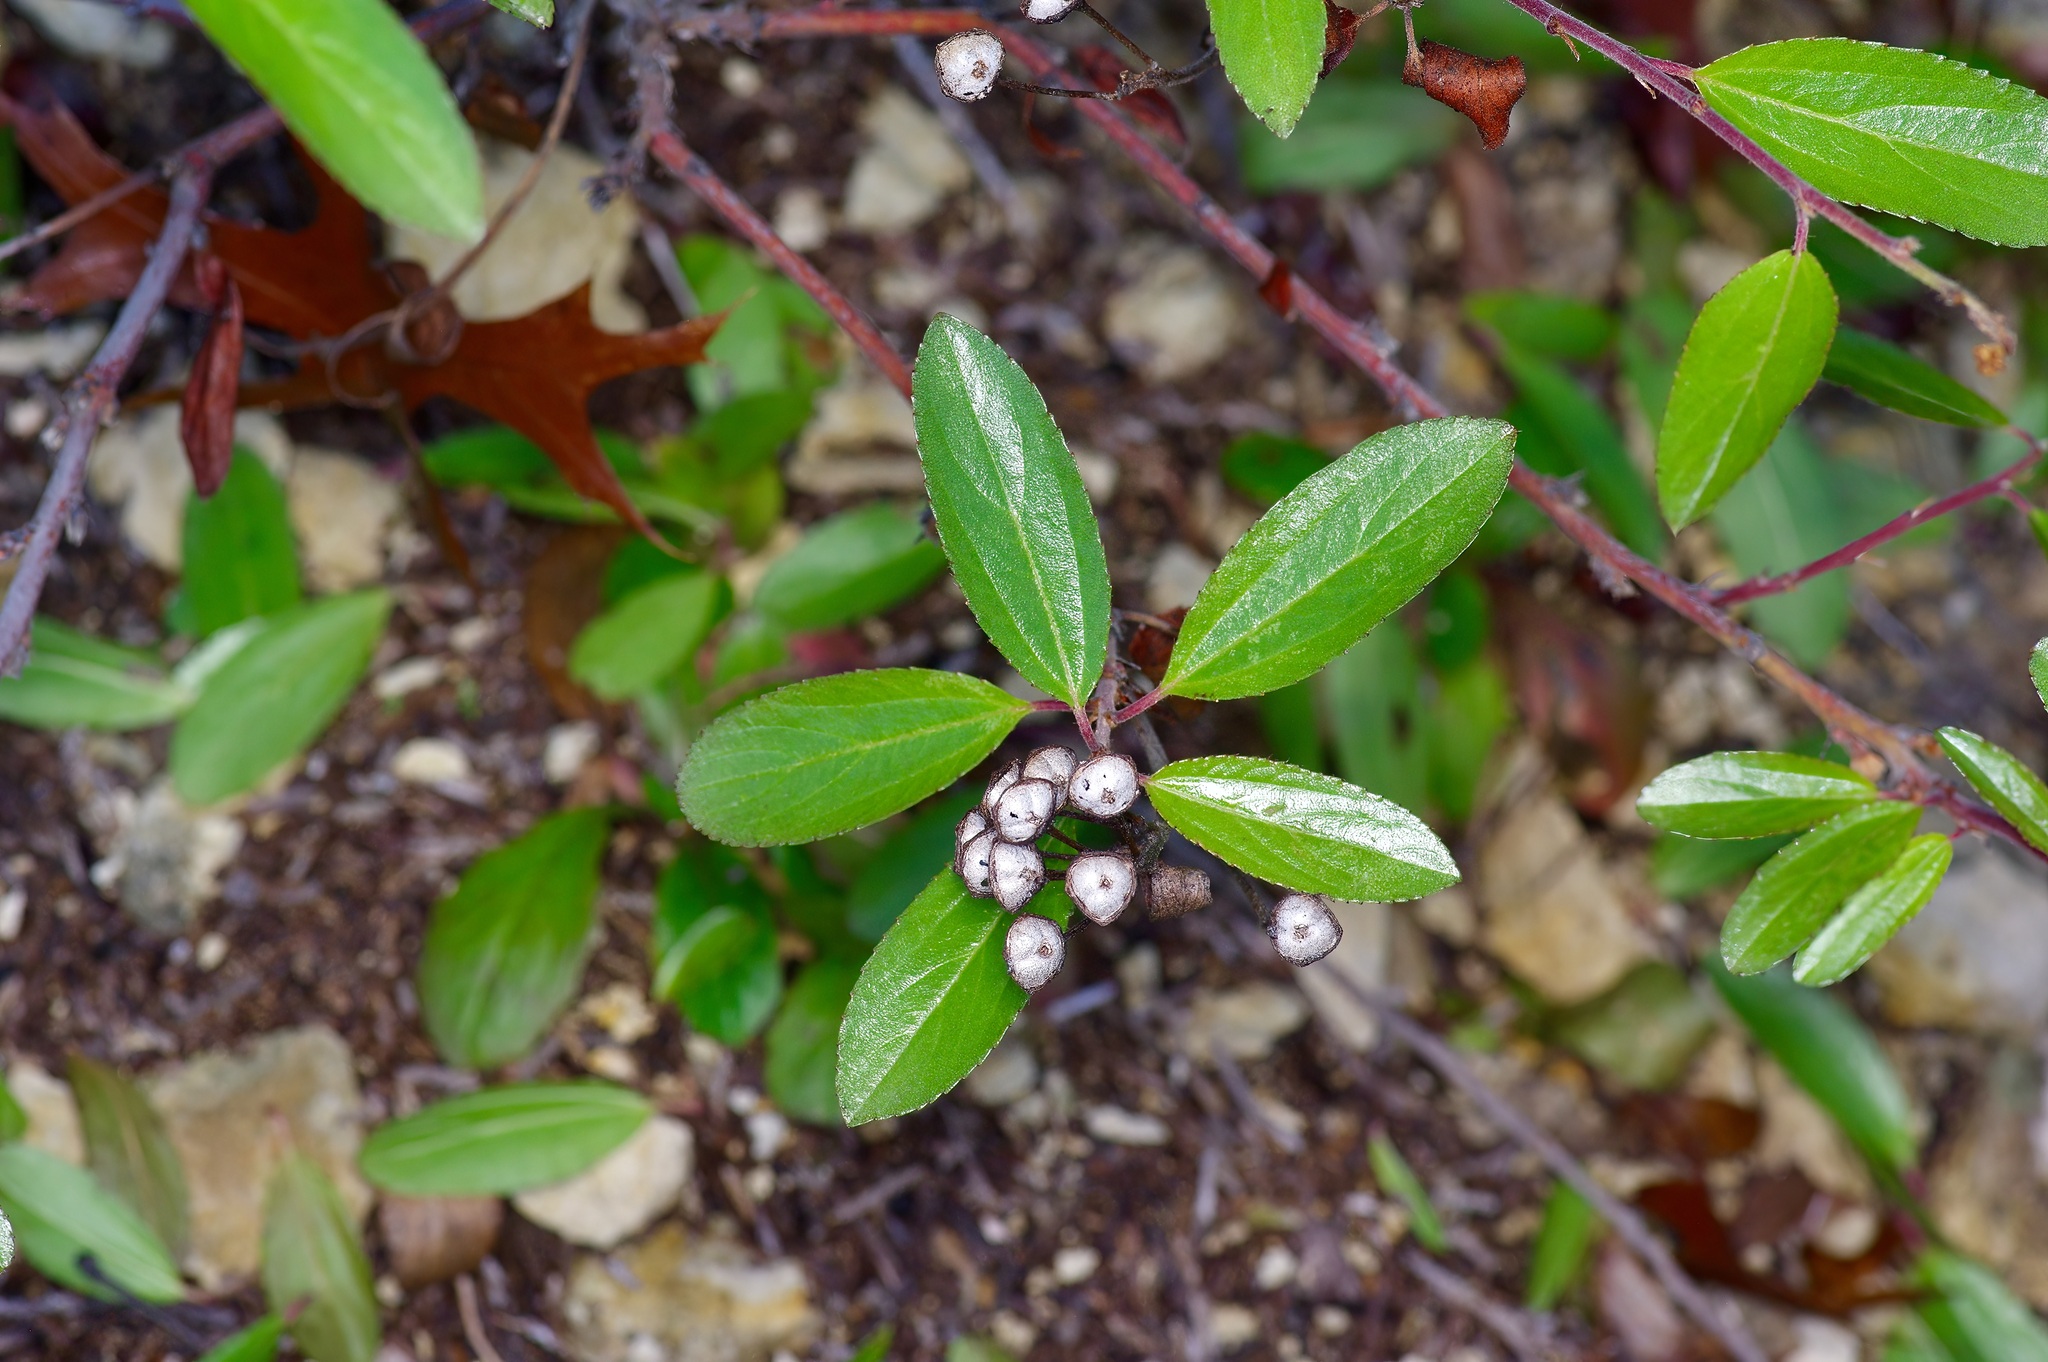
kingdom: Plantae
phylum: Tracheophyta
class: Magnoliopsida
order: Rosales
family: Rhamnaceae
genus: Ceanothus
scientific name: Ceanothus herbaceus
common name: Inland ceanothus
